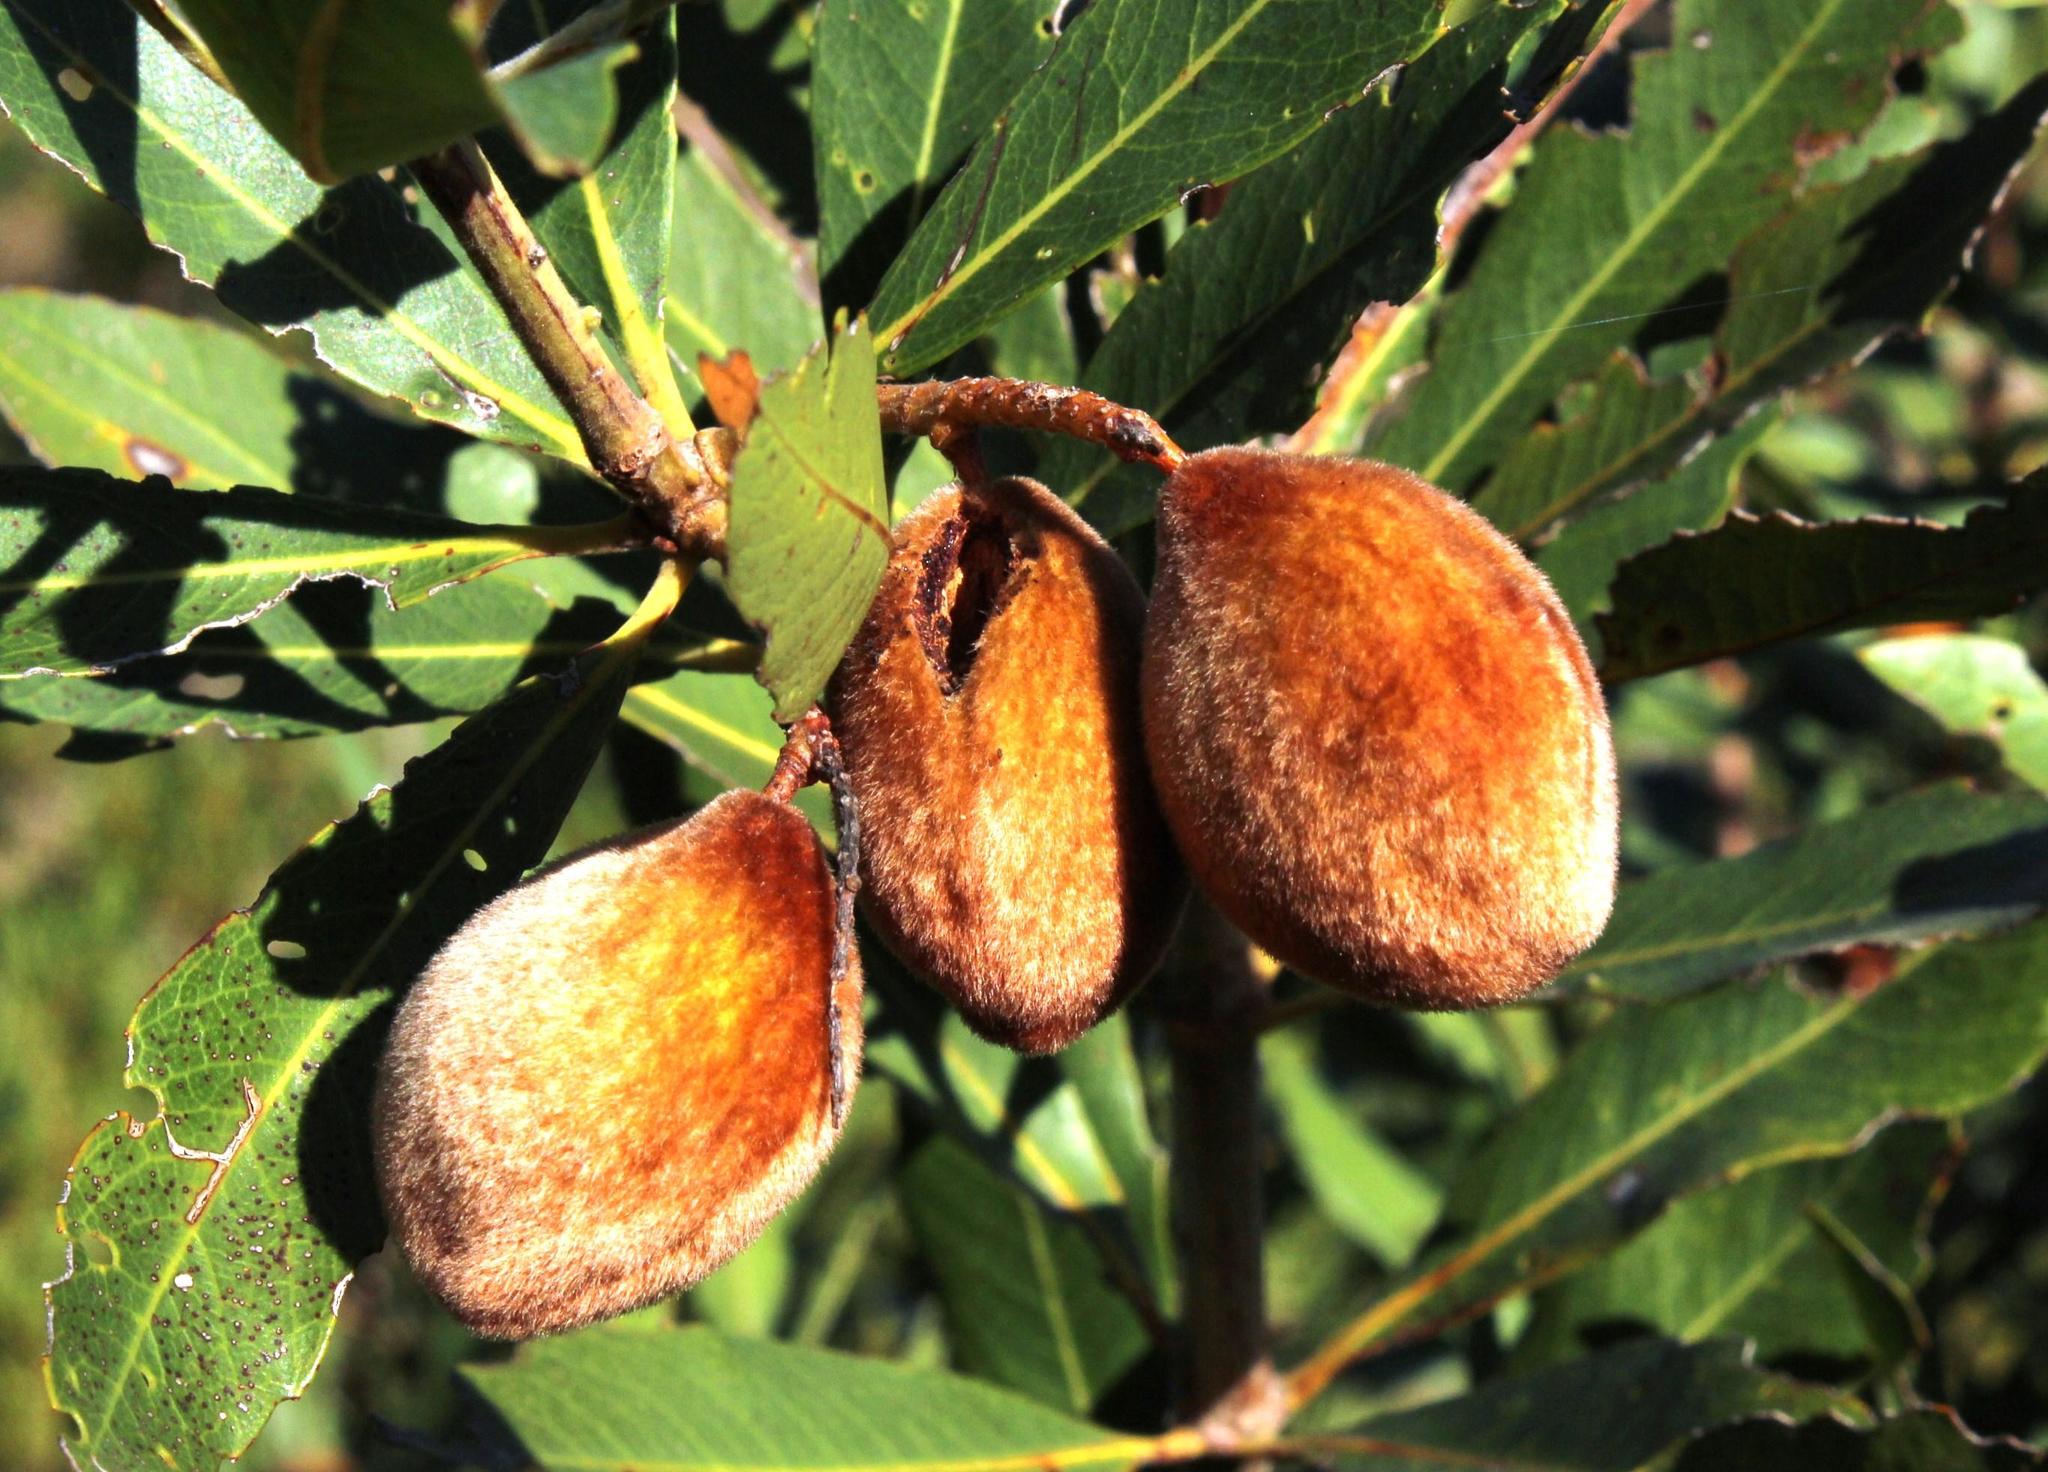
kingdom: Plantae
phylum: Tracheophyta
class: Magnoliopsida
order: Proteales
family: Proteaceae
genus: Brabejum
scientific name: Brabejum stellatifolium
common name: Wild almond
